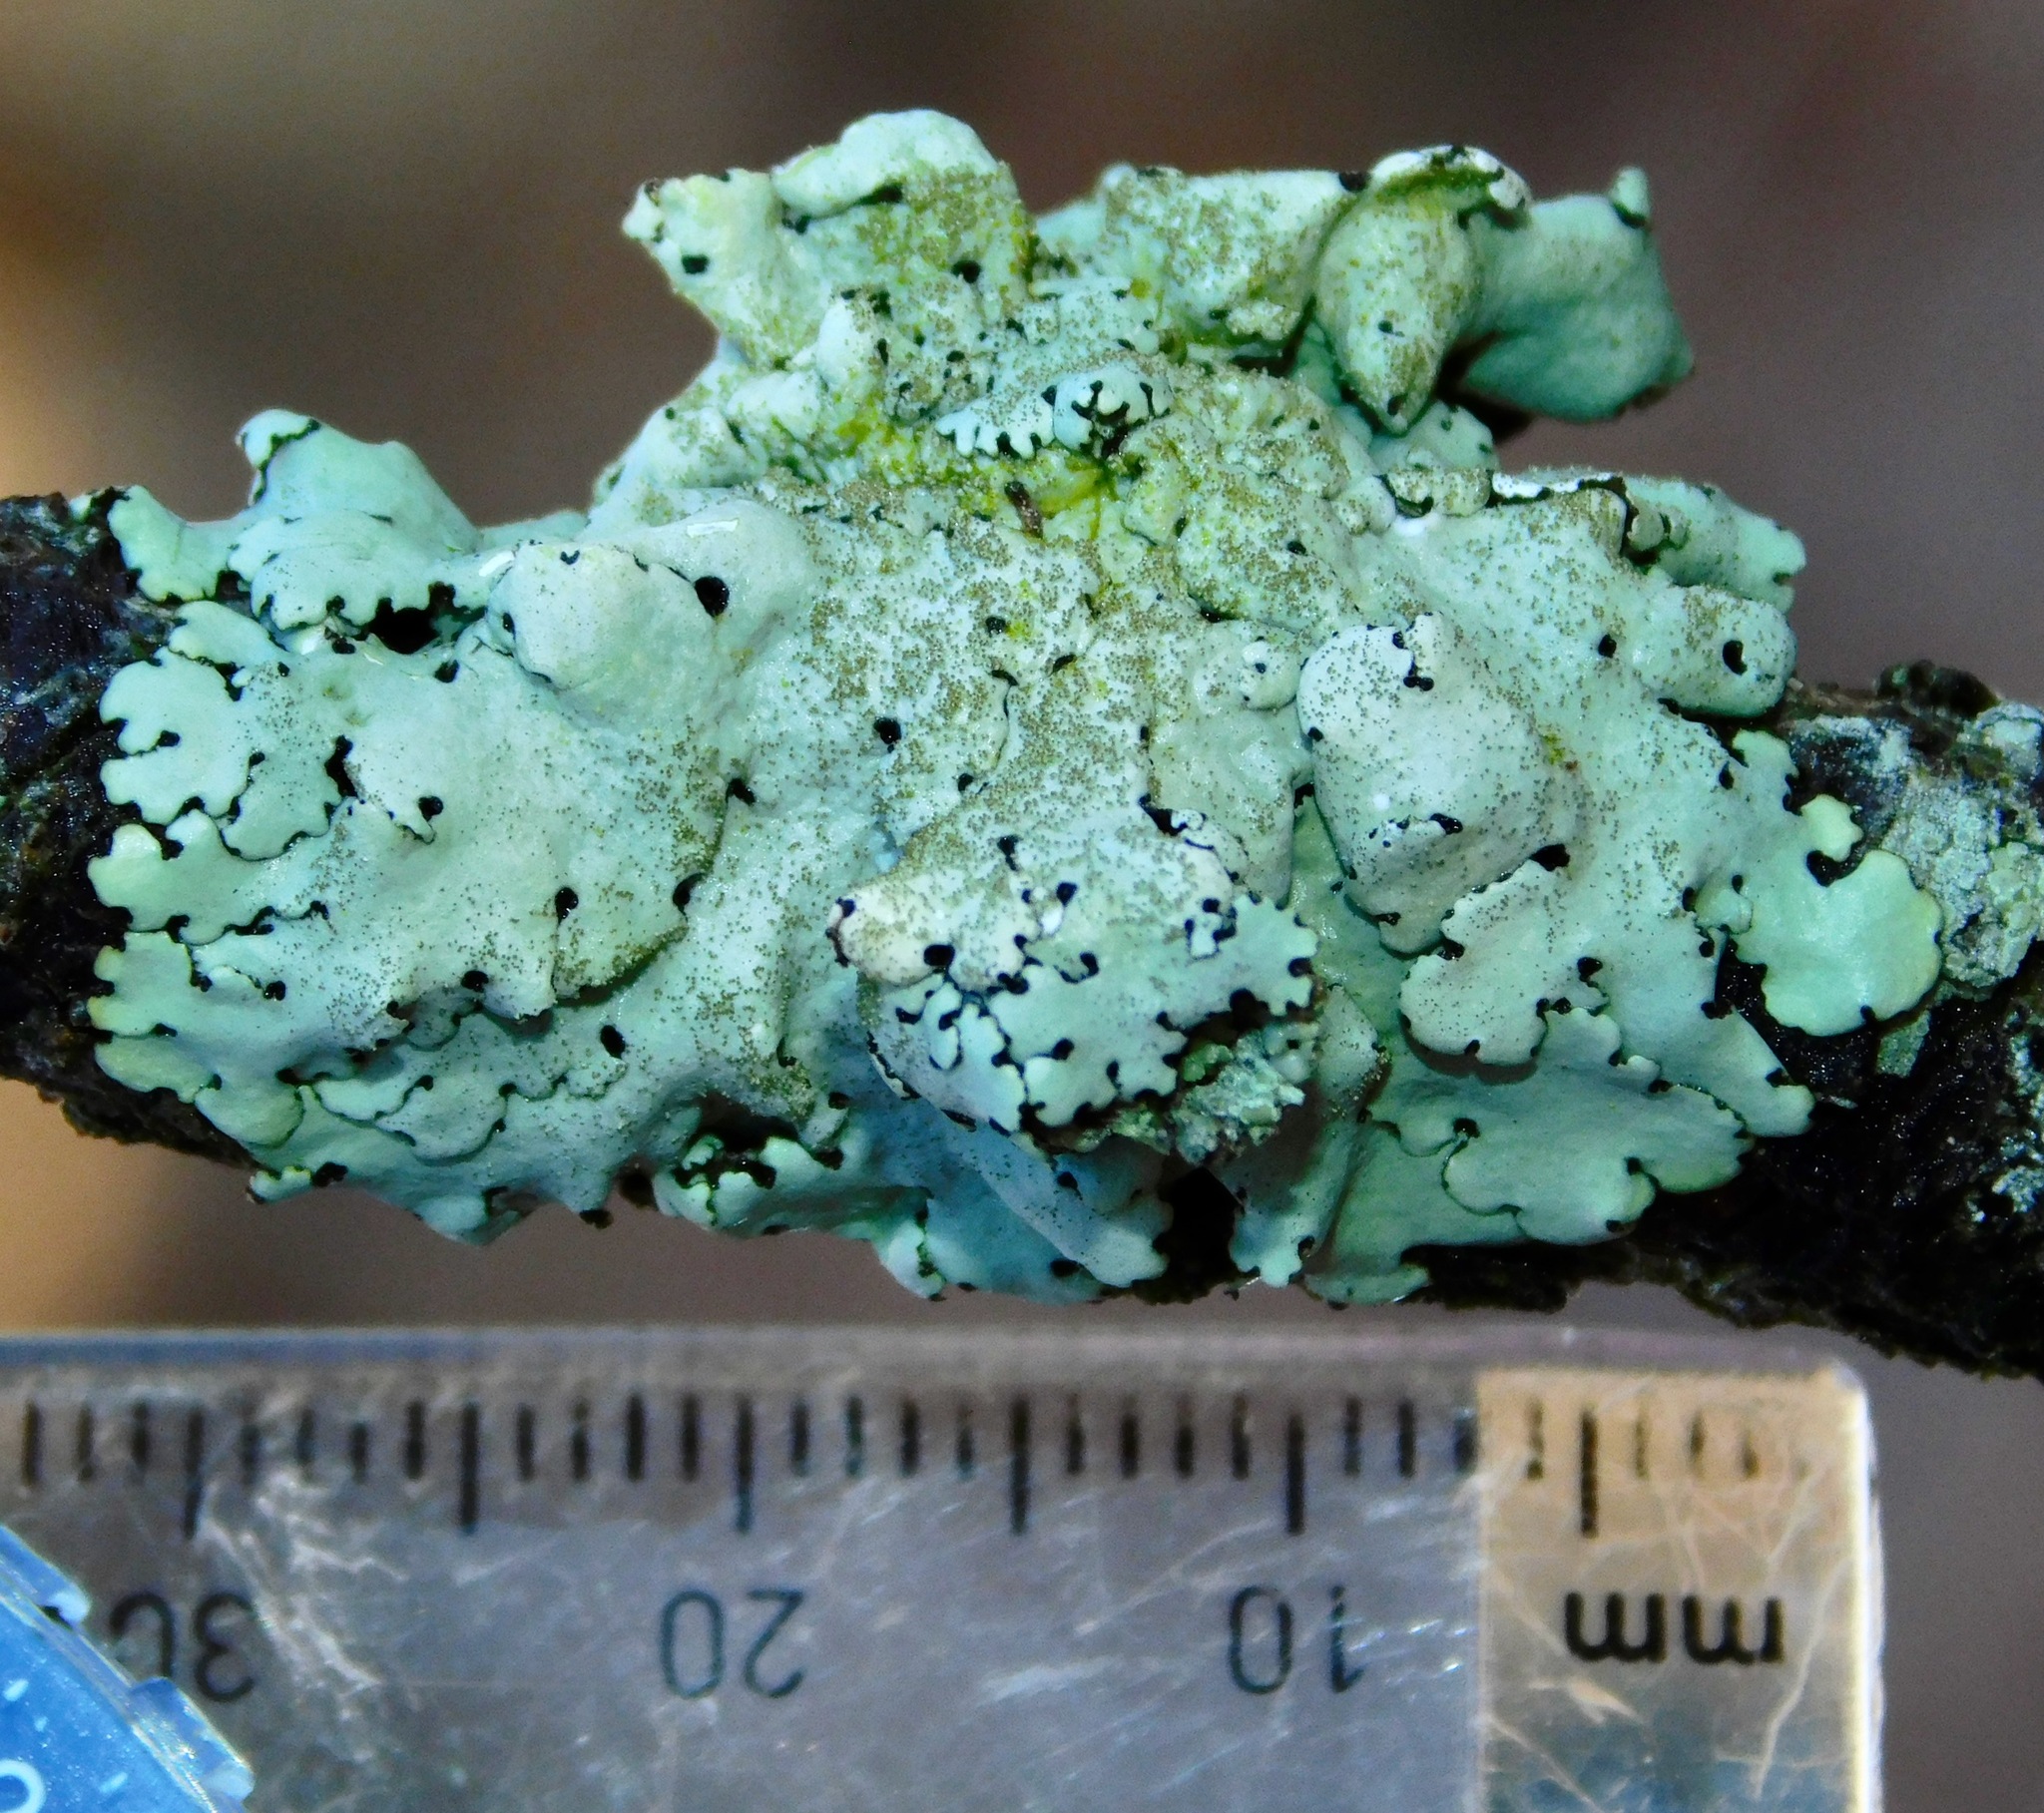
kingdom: Fungi
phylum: Ascomycota
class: Lecanoromycetes
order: Lecanorales
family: Parmeliaceae
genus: Hypotrachyna
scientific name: Hypotrachyna minarum
